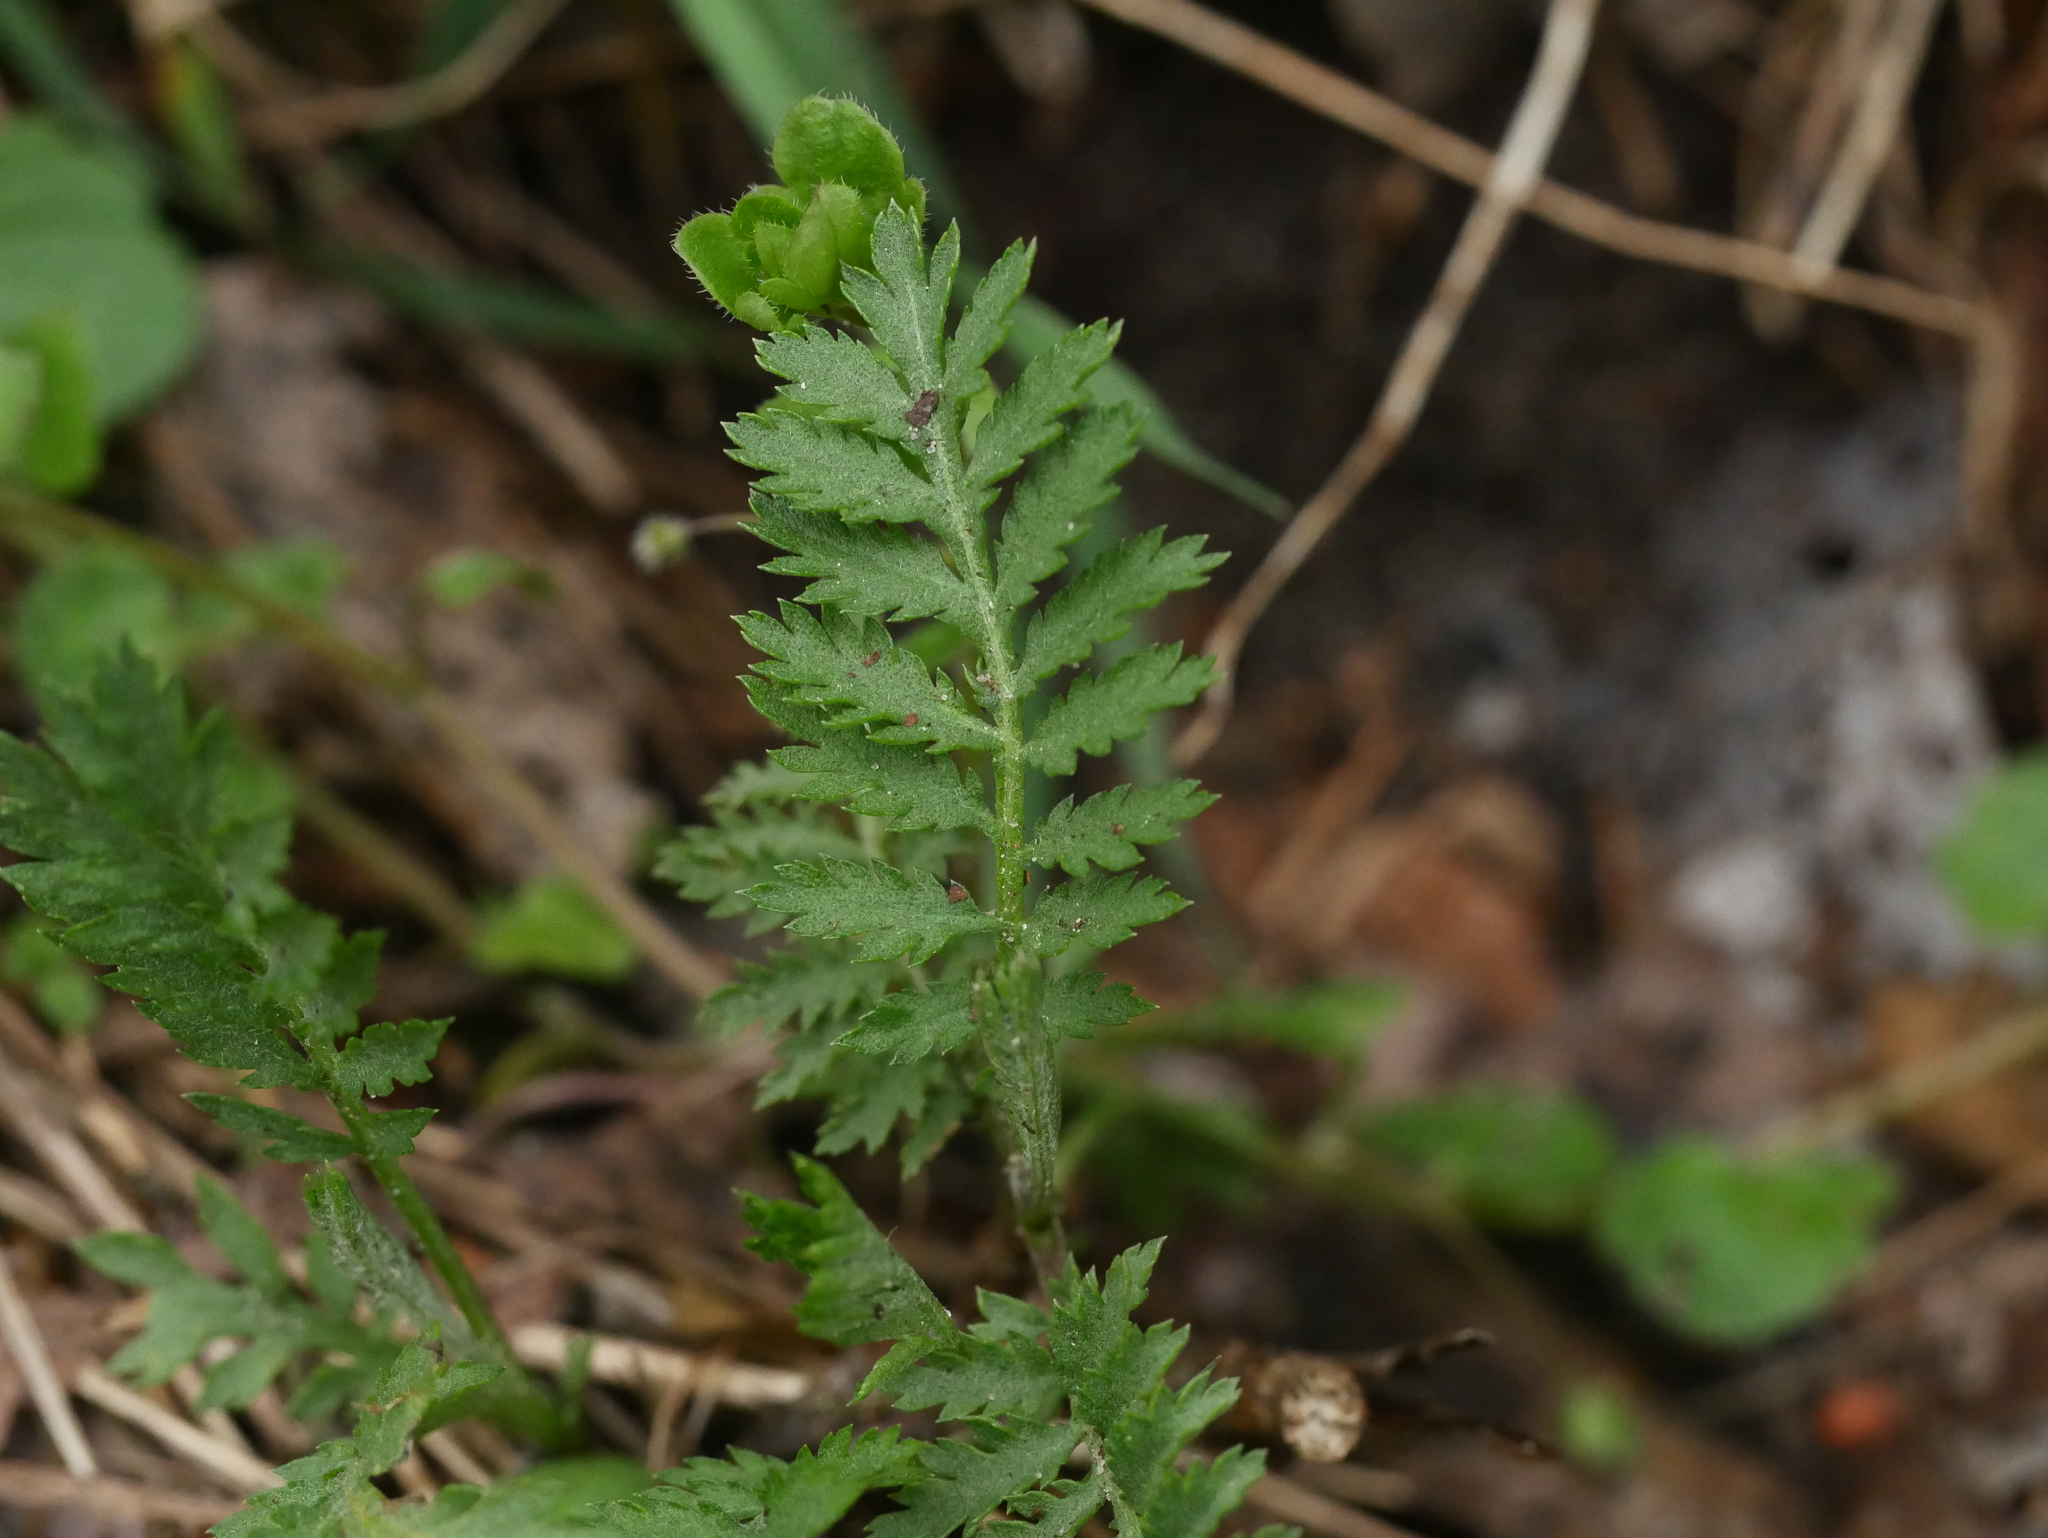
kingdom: Plantae
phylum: Tracheophyta
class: Magnoliopsida
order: Asterales
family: Asteraceae
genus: Tanacetum
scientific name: Tanacetum vulgare
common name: Common tansy
